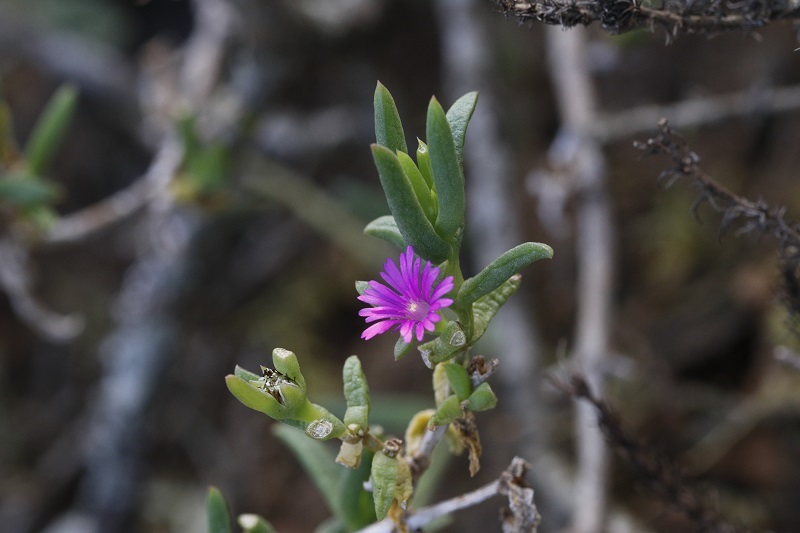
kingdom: Plantae
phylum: Tracheophyta
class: Magnoliopsida
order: Caryophyllales
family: Aizoaceae
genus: Delosperma
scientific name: Delosperma cloeteae
